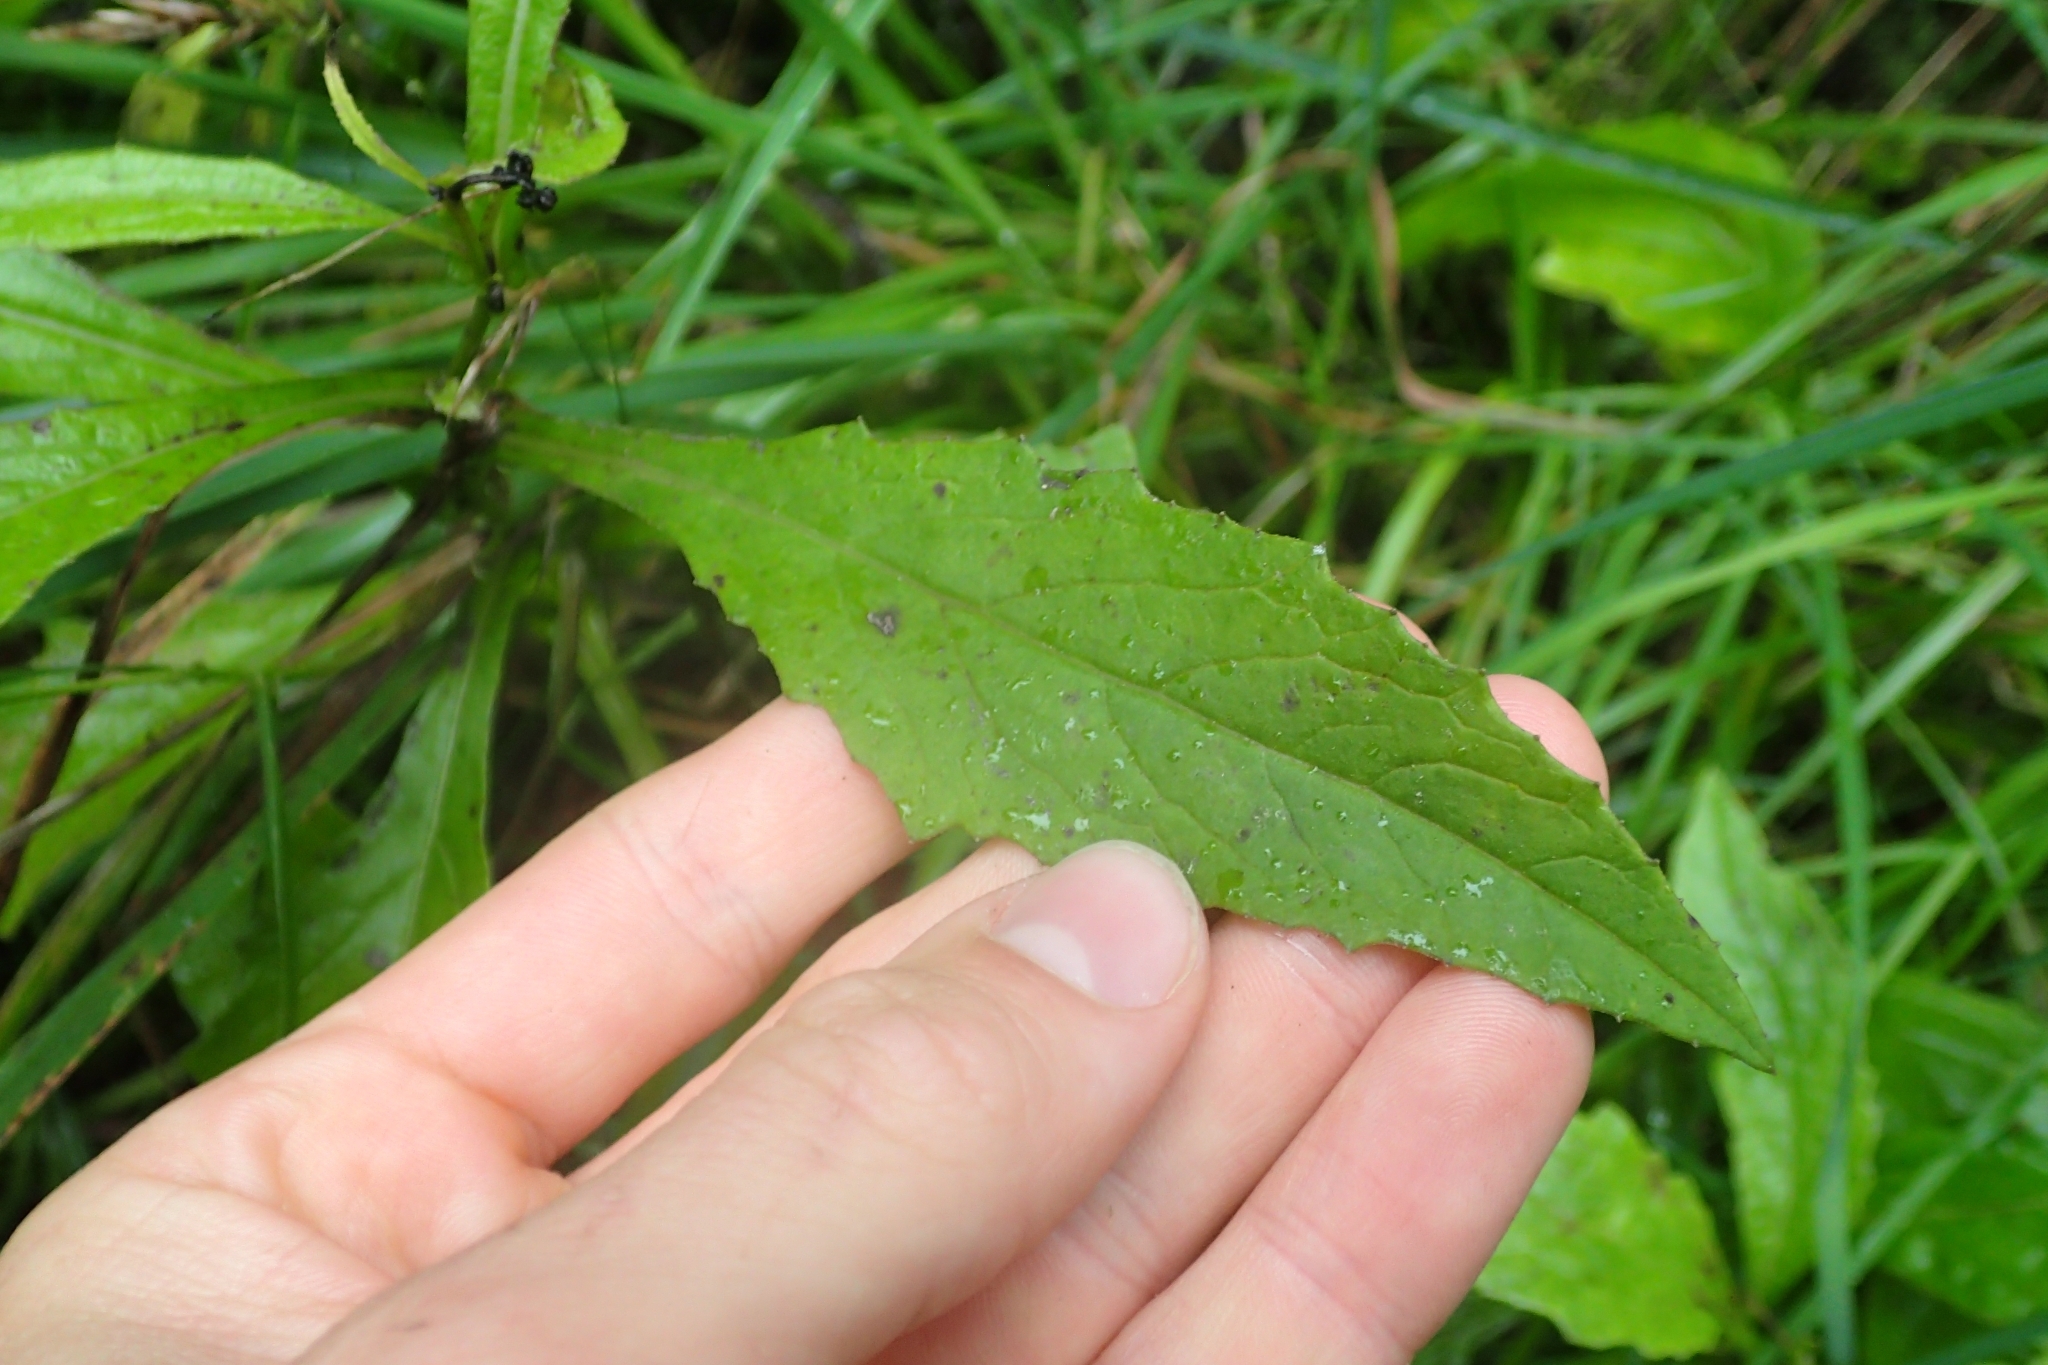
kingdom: Plantae
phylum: Tracheophyta
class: Magnoliopsida
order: Asterales
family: Asteraceae
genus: Senecio
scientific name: Senecio rufiglandulosus
